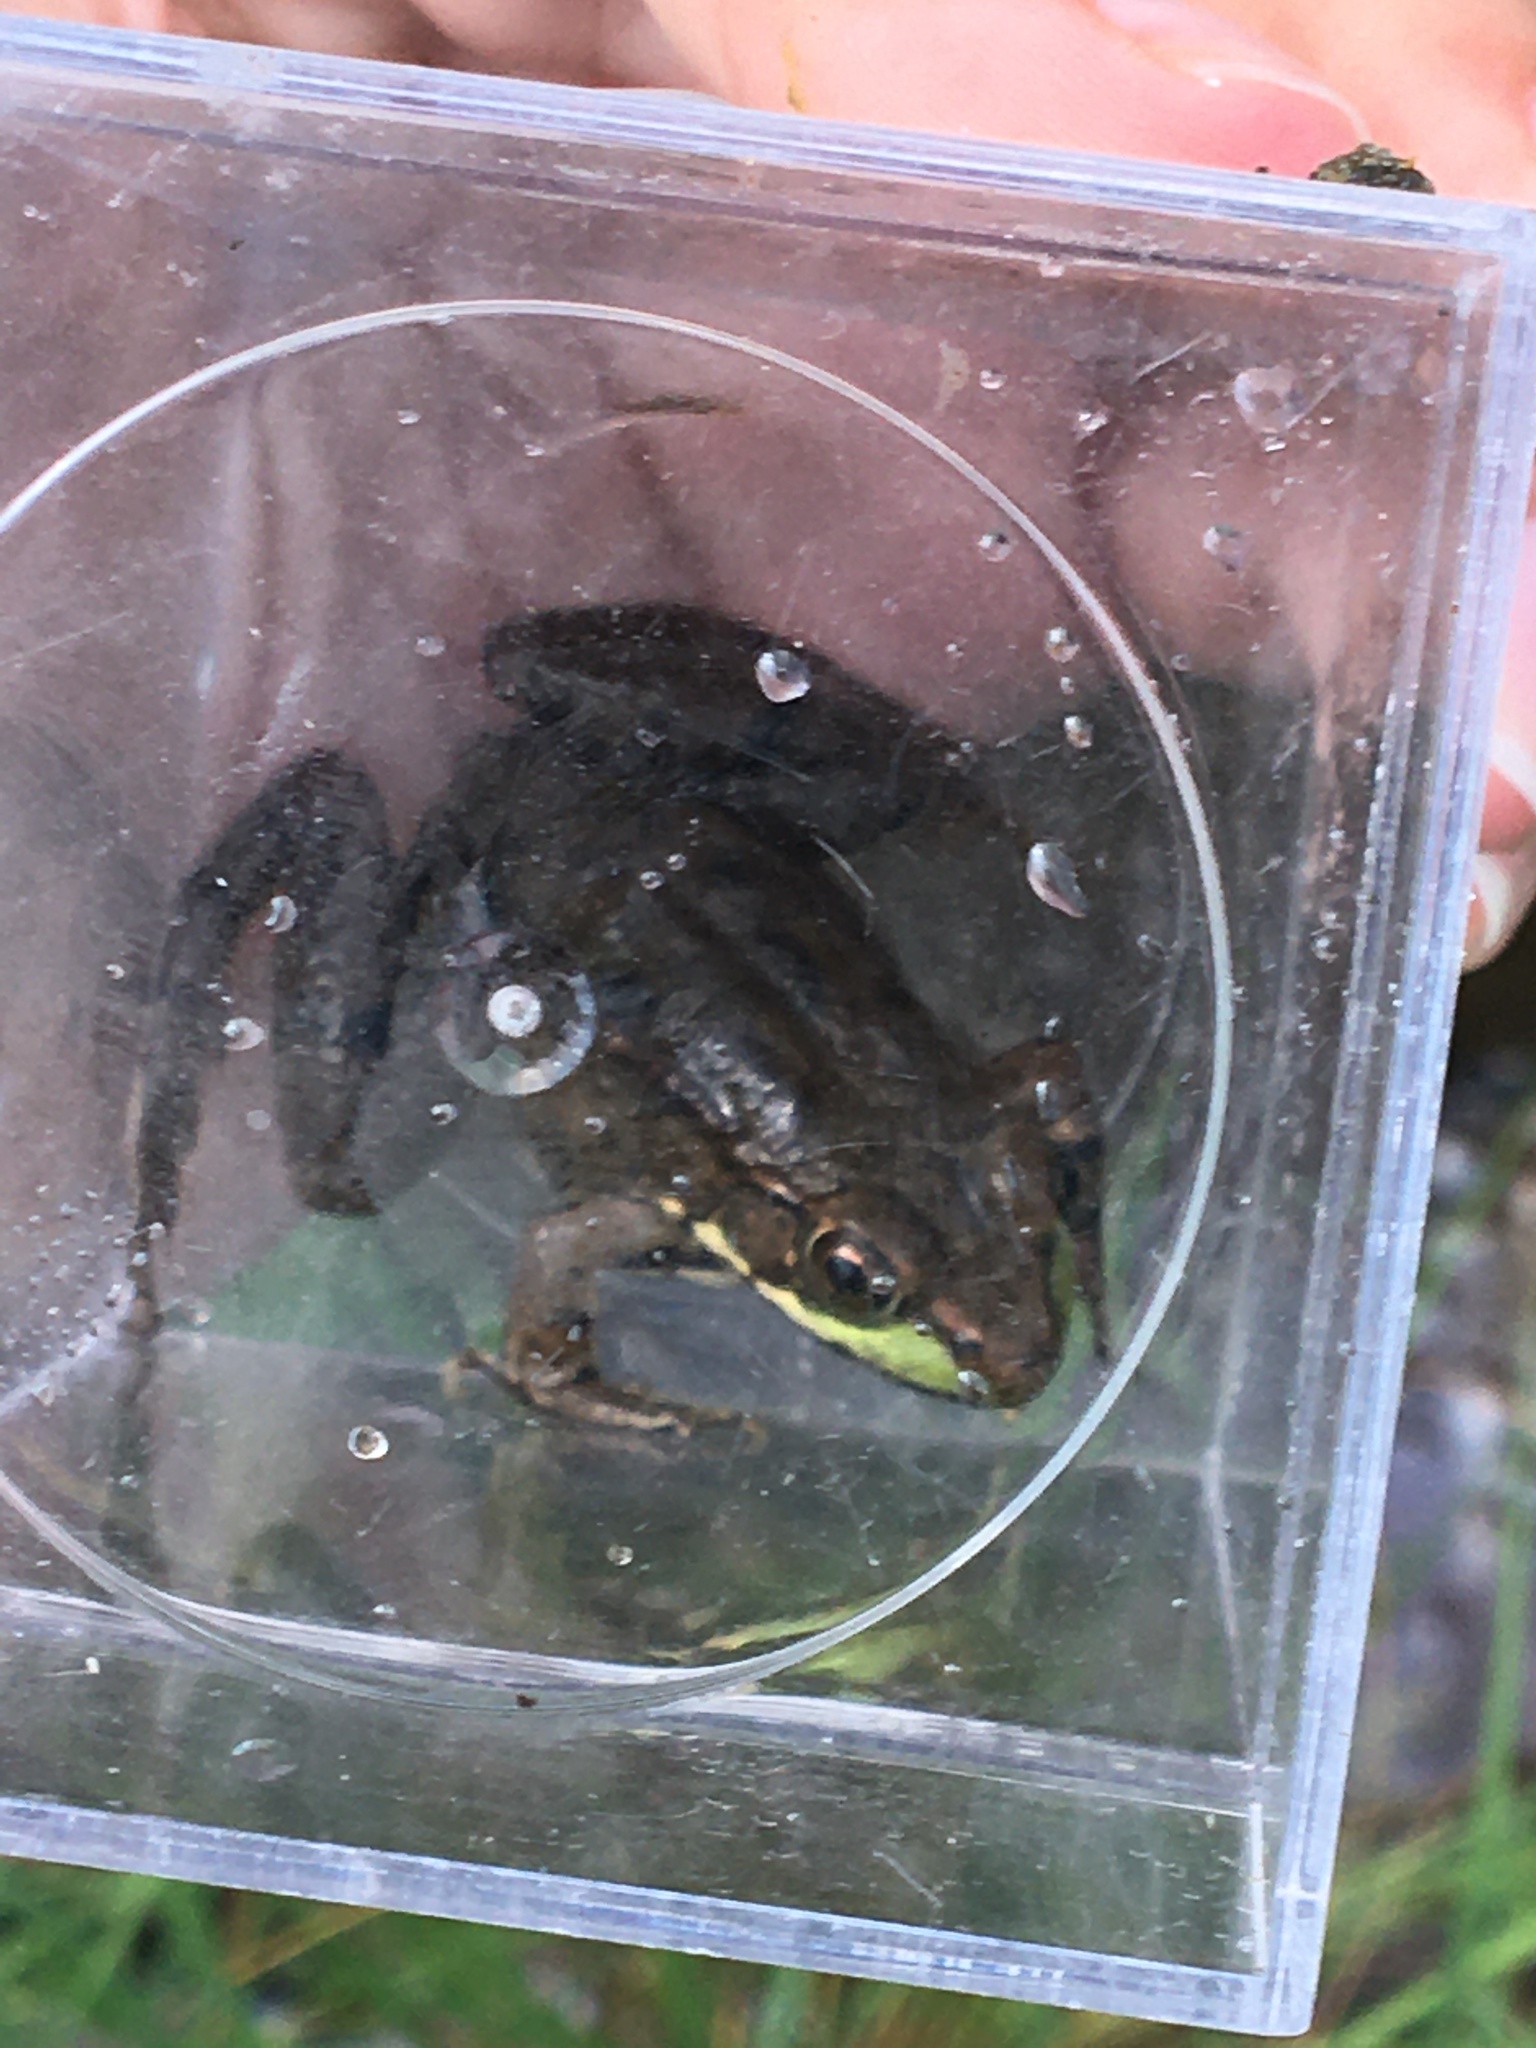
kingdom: Animalia
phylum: Chordata
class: Amphibia
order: Anura
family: Ranidae
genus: Lithobates
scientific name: Lithobates clamitans
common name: Green frog
